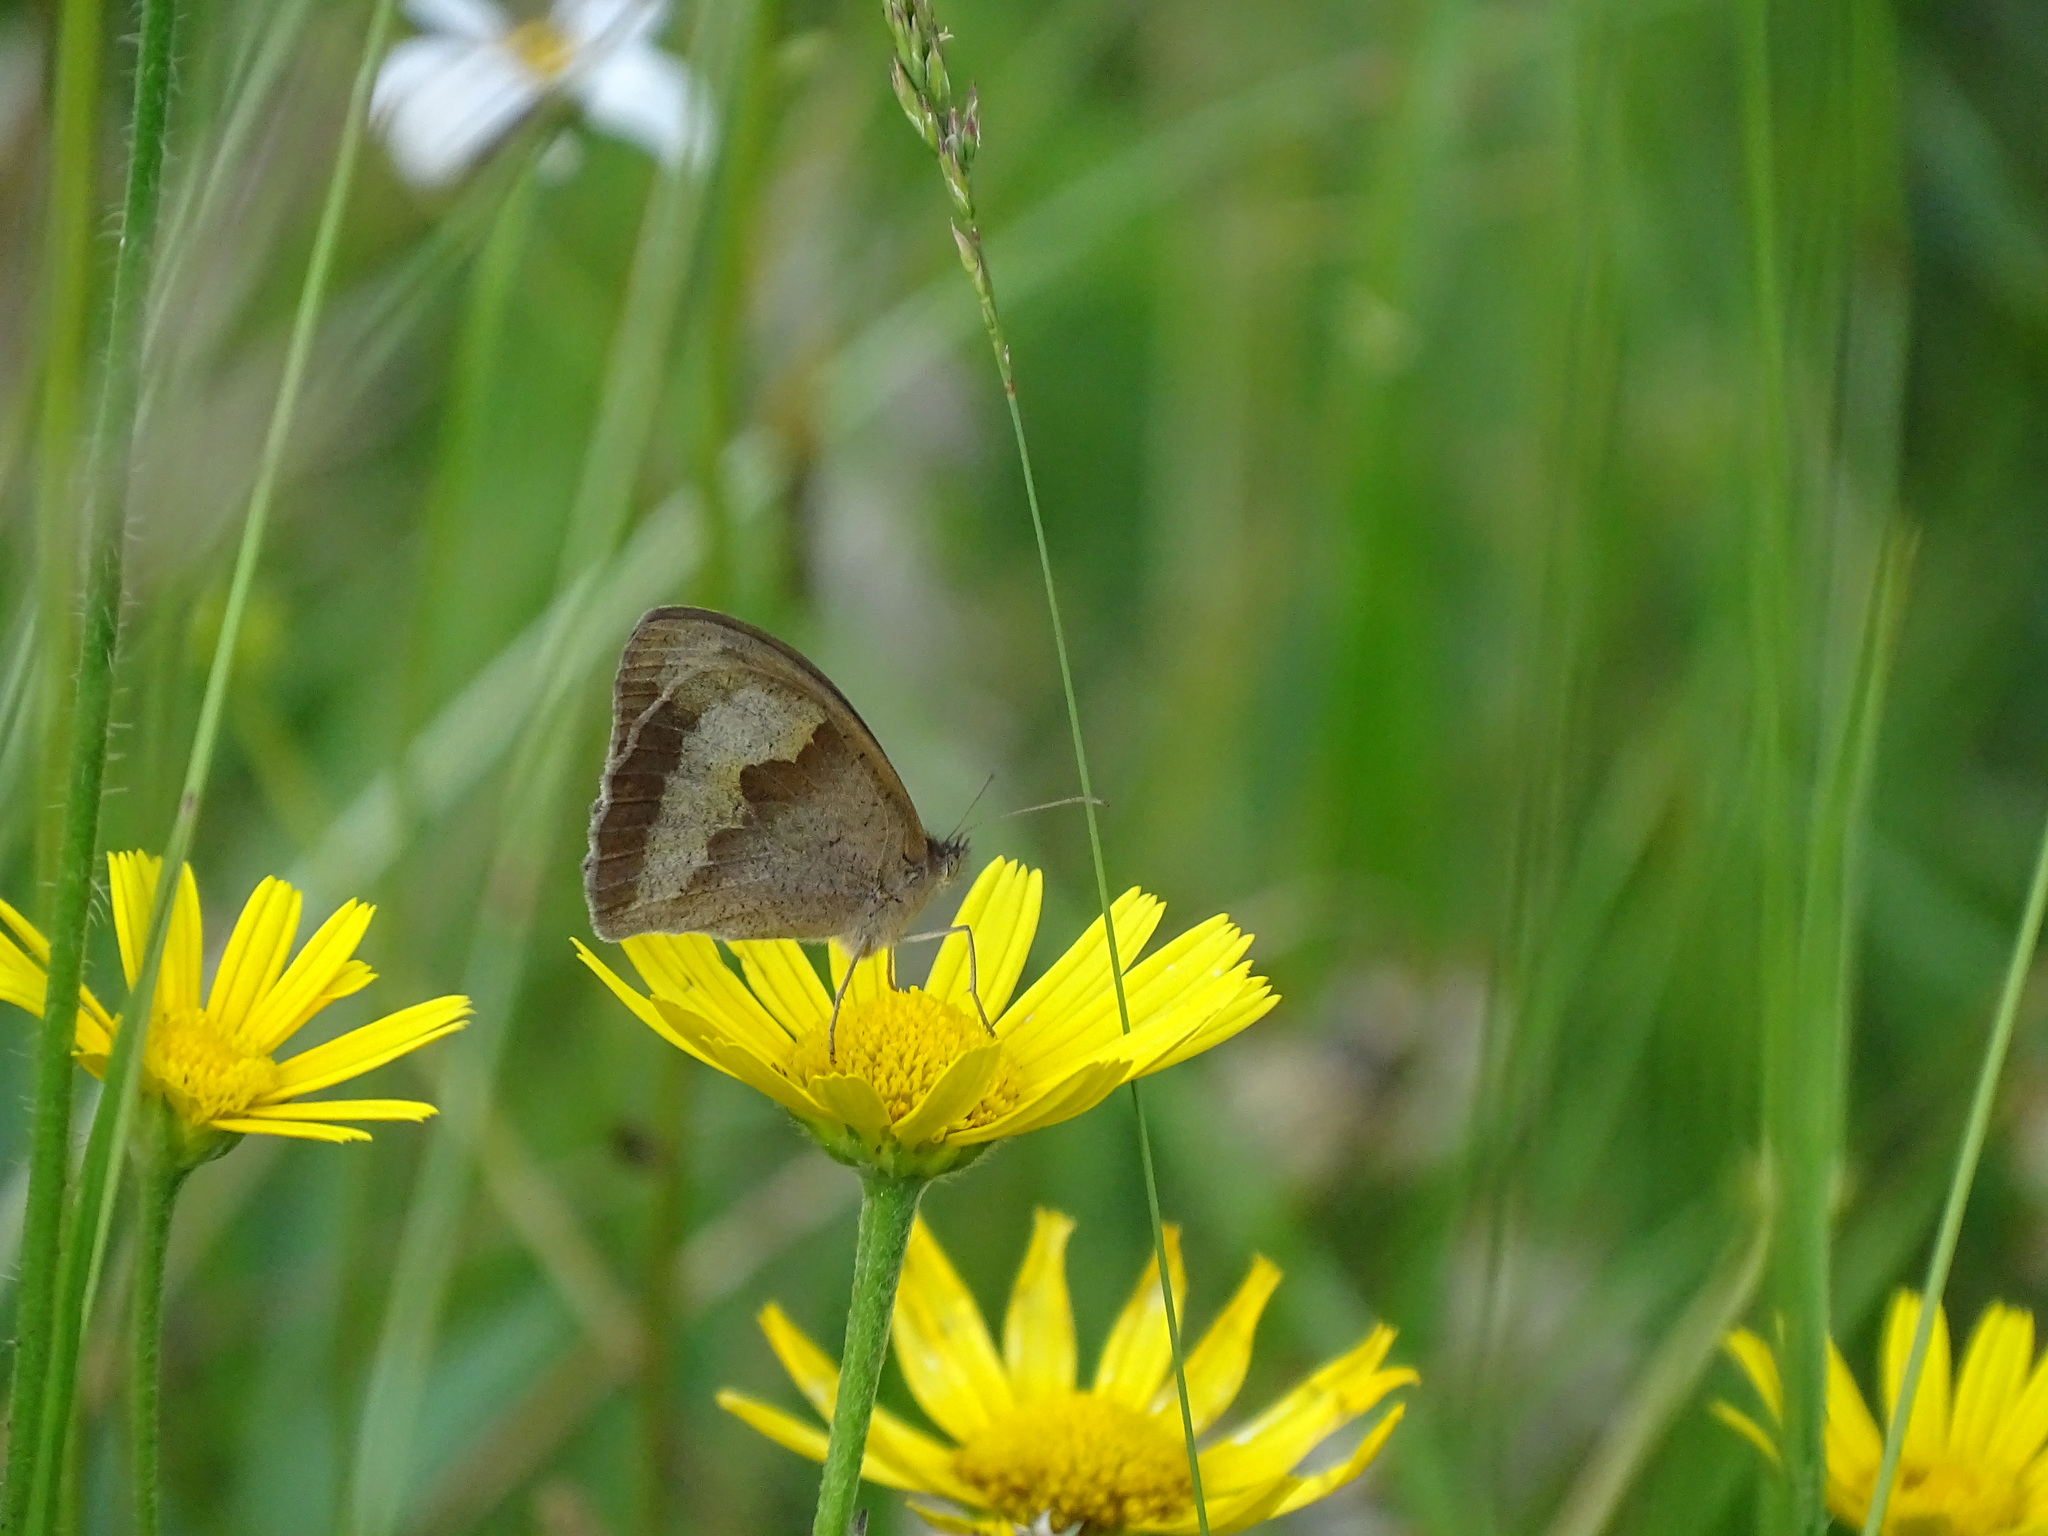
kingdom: Animalia
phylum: Arthropoda
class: Insecta
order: Lepidoptera
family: Nymphalidae
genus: Maniola
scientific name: Maniola jurtina
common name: Meadow brown
